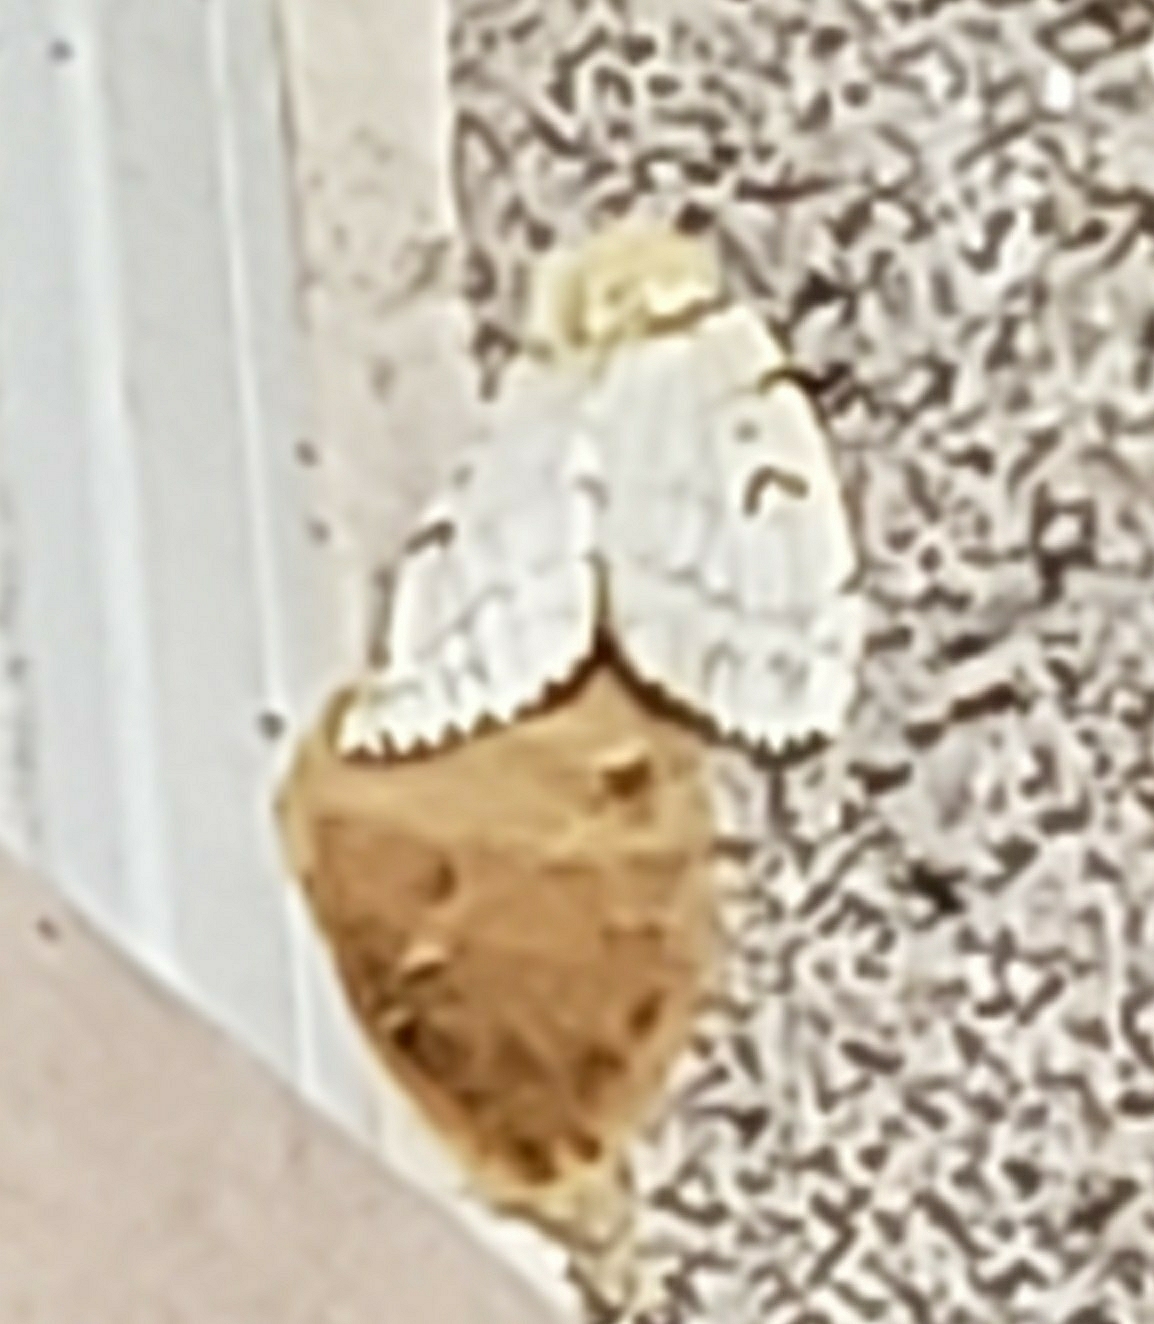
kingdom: Animalia
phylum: Arthropoda
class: Insecta
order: Lepidoptera
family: Erebidae
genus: Lymantria
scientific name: Lymantria dispar
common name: Gypsy moth
